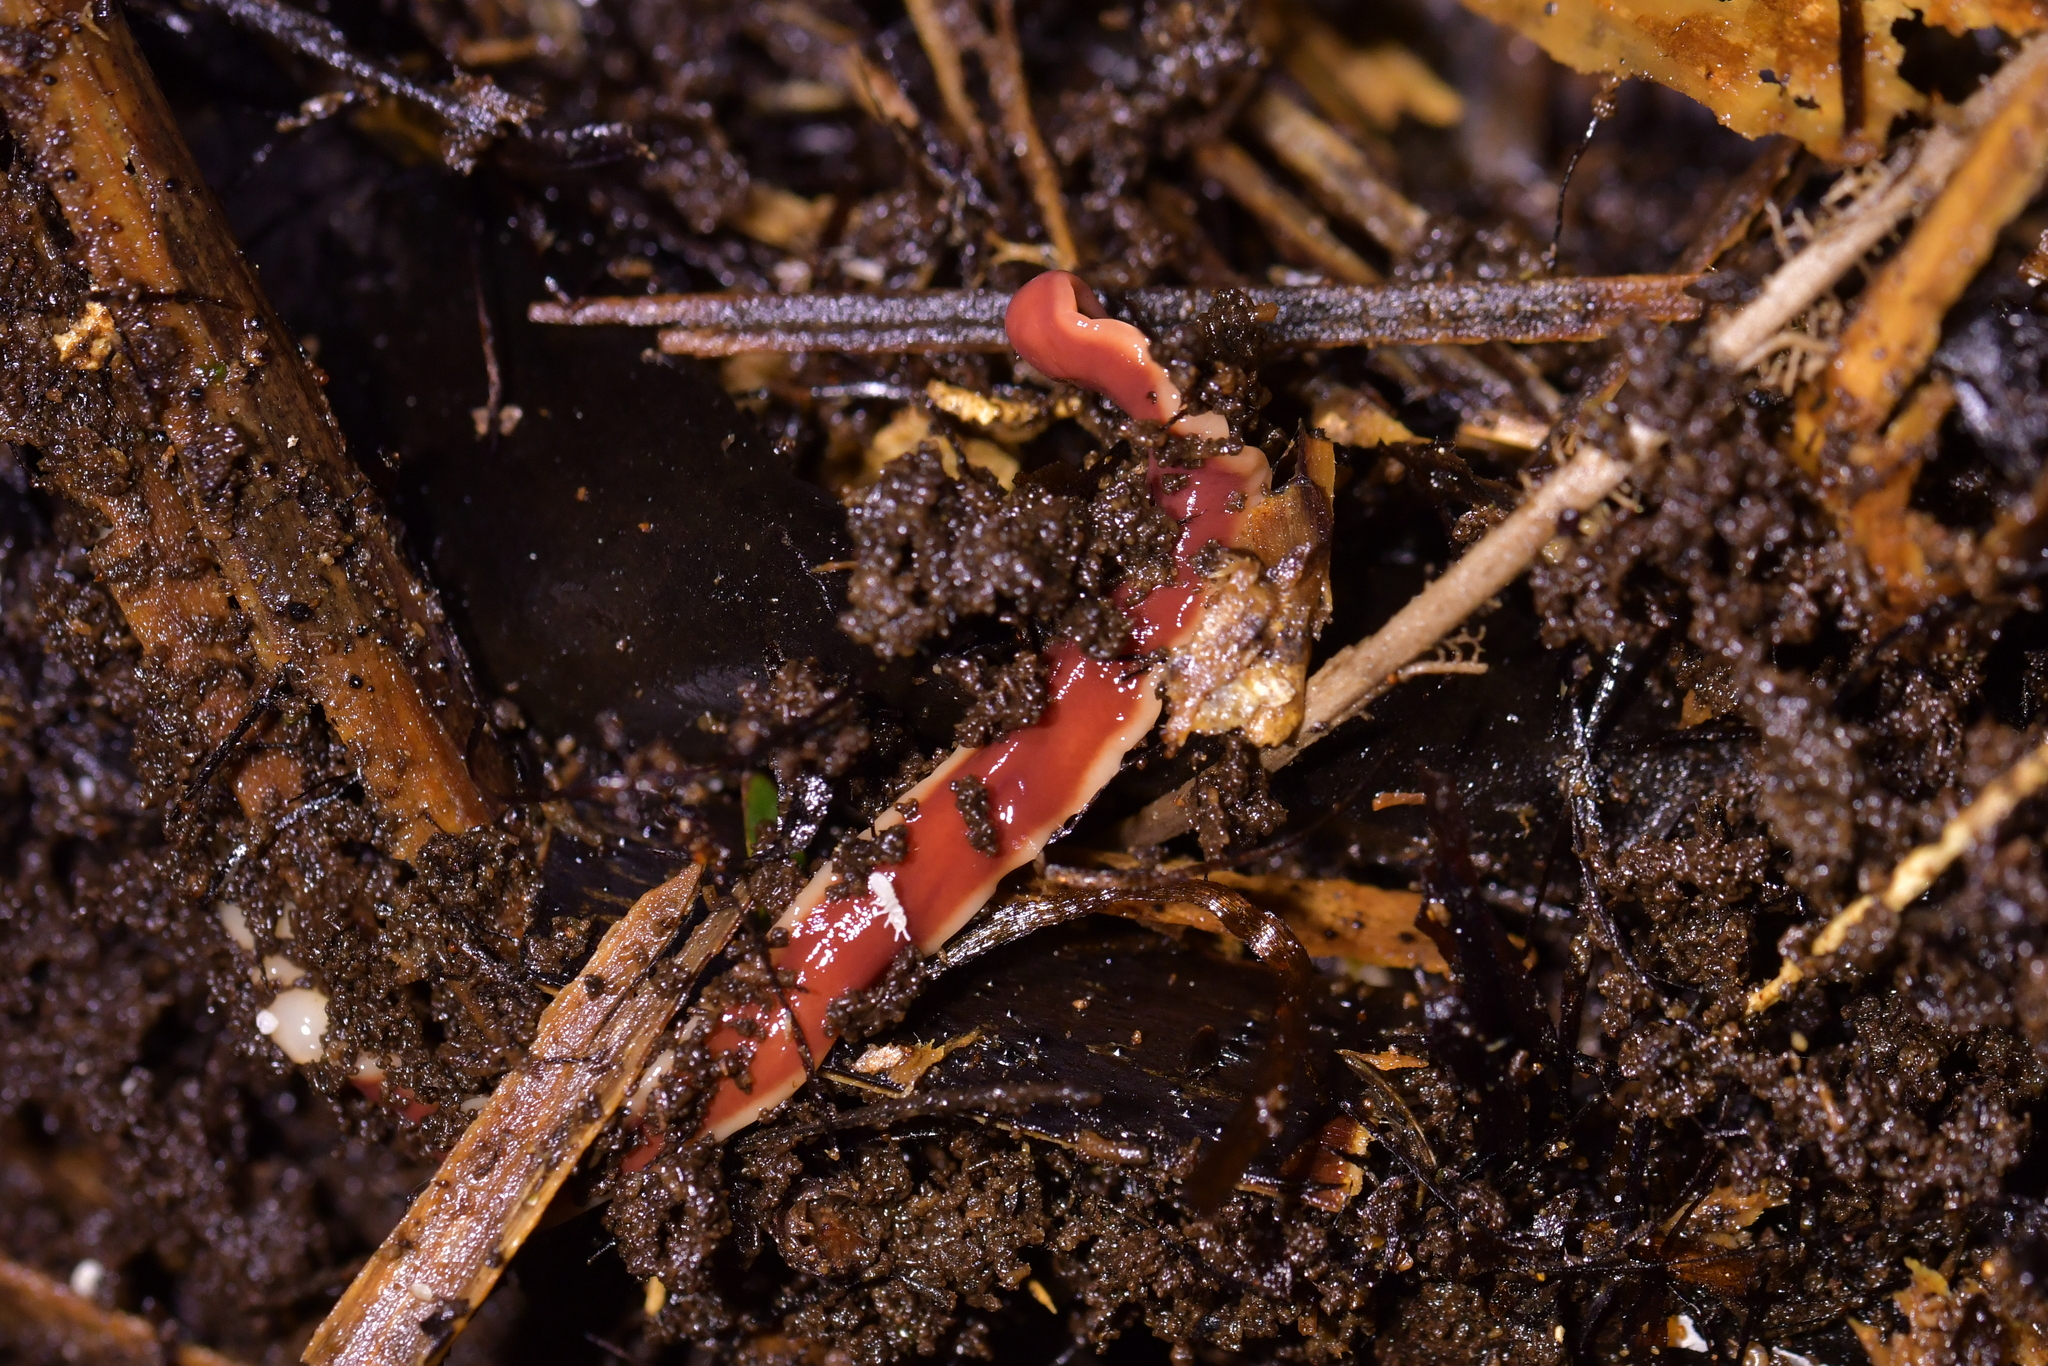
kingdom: Animalia
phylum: Platyhelminthes
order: Tricladida
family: Geoplanidae
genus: Arthurdendyus
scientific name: Arthurdendyus testaceus
